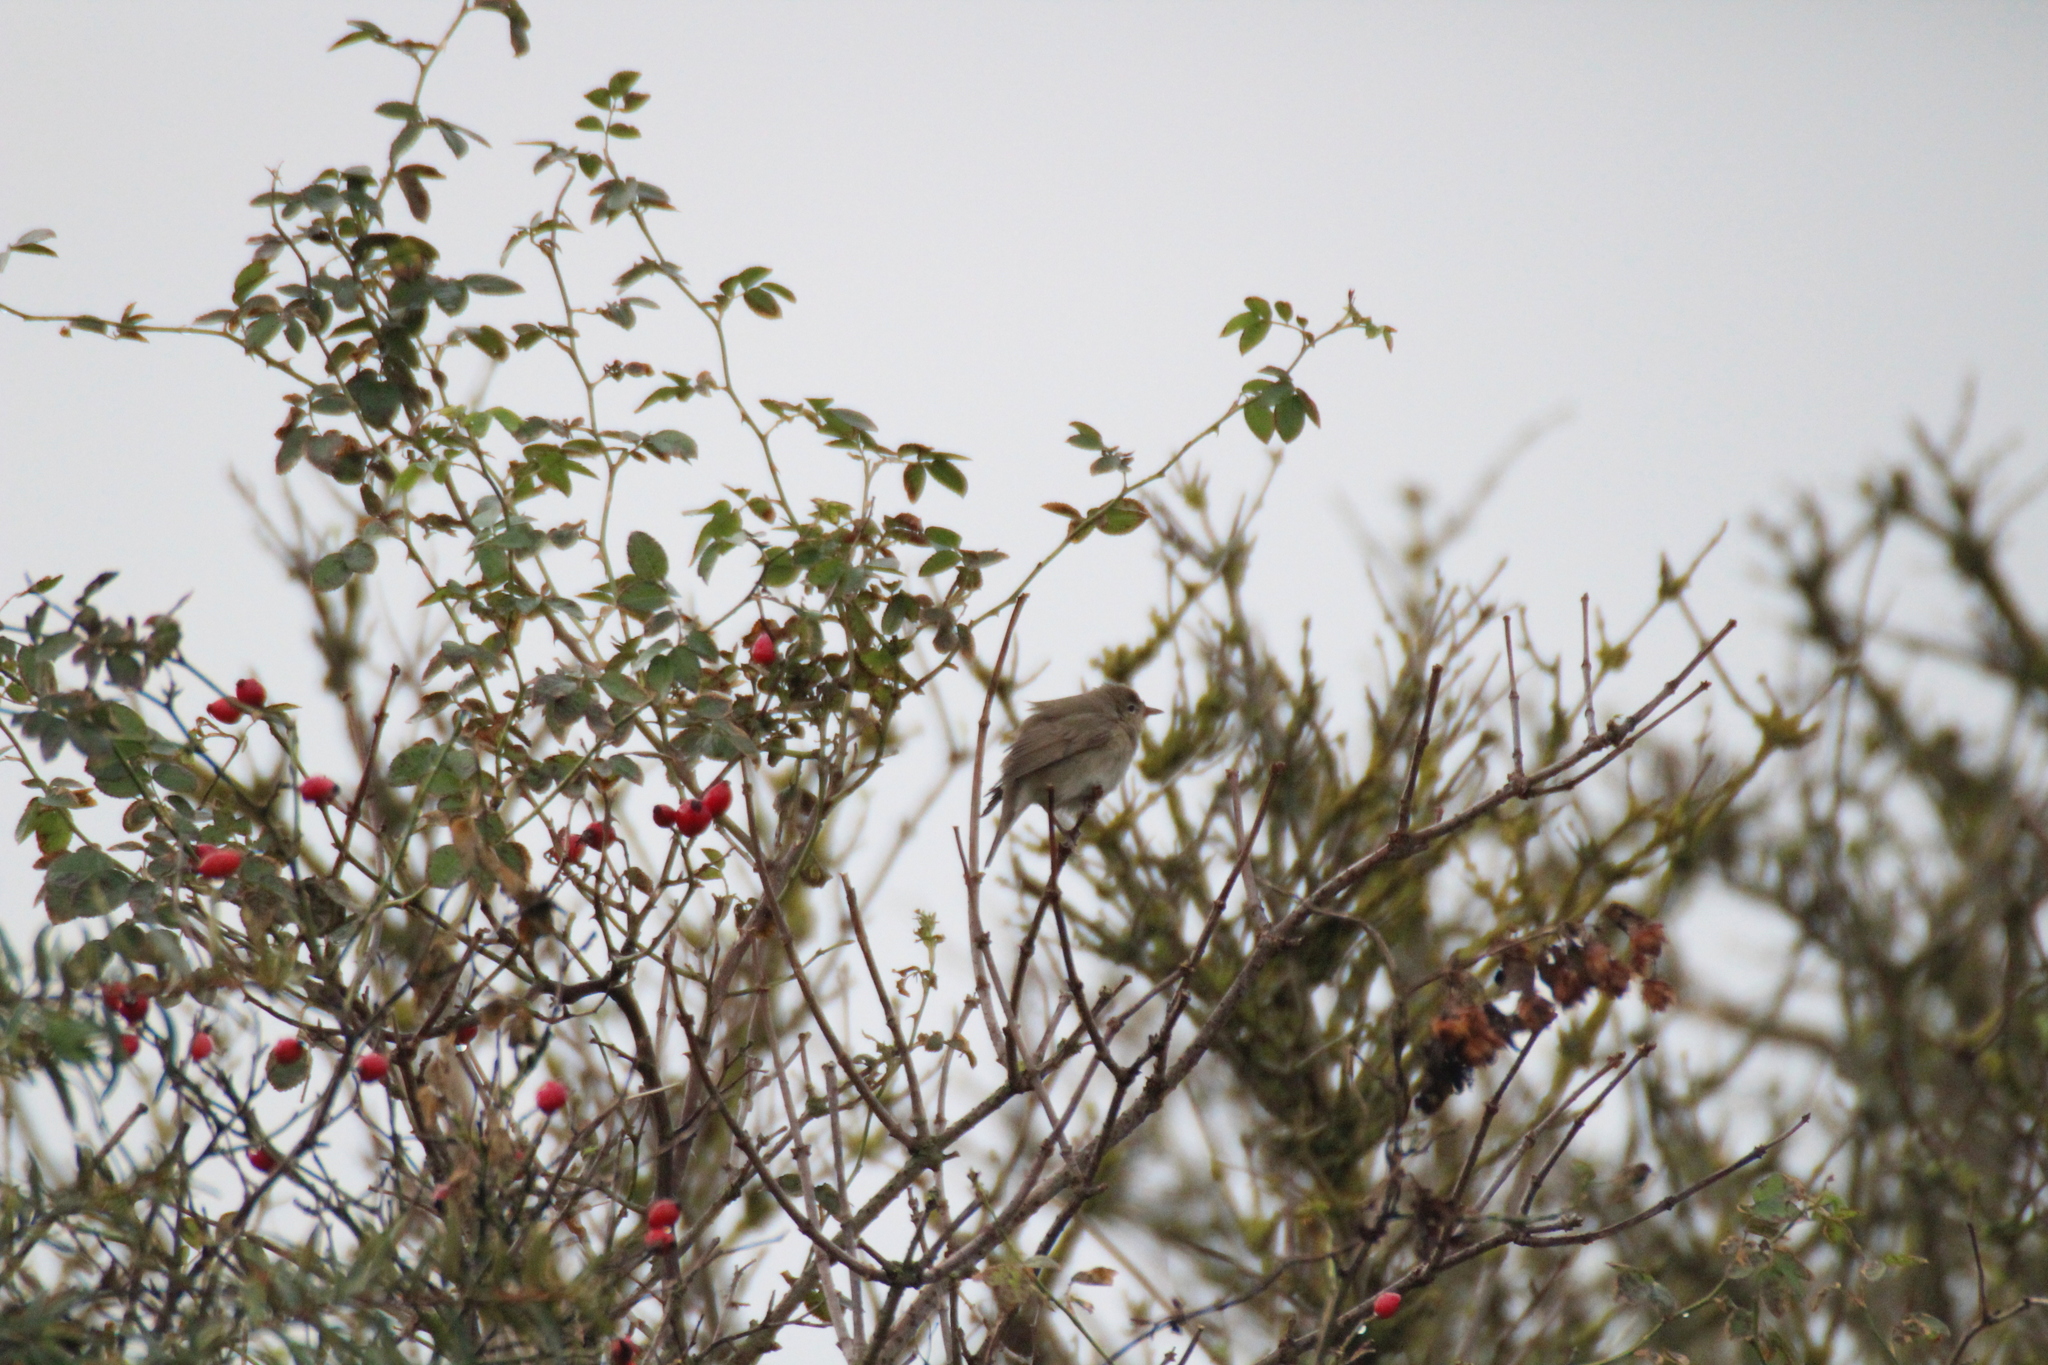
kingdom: Animalia
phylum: Chordata
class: Aves
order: Passeriformes
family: Phylloscopidae
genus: Phylloscopus
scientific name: Phylloscopus collybita
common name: Common chiffchaff
